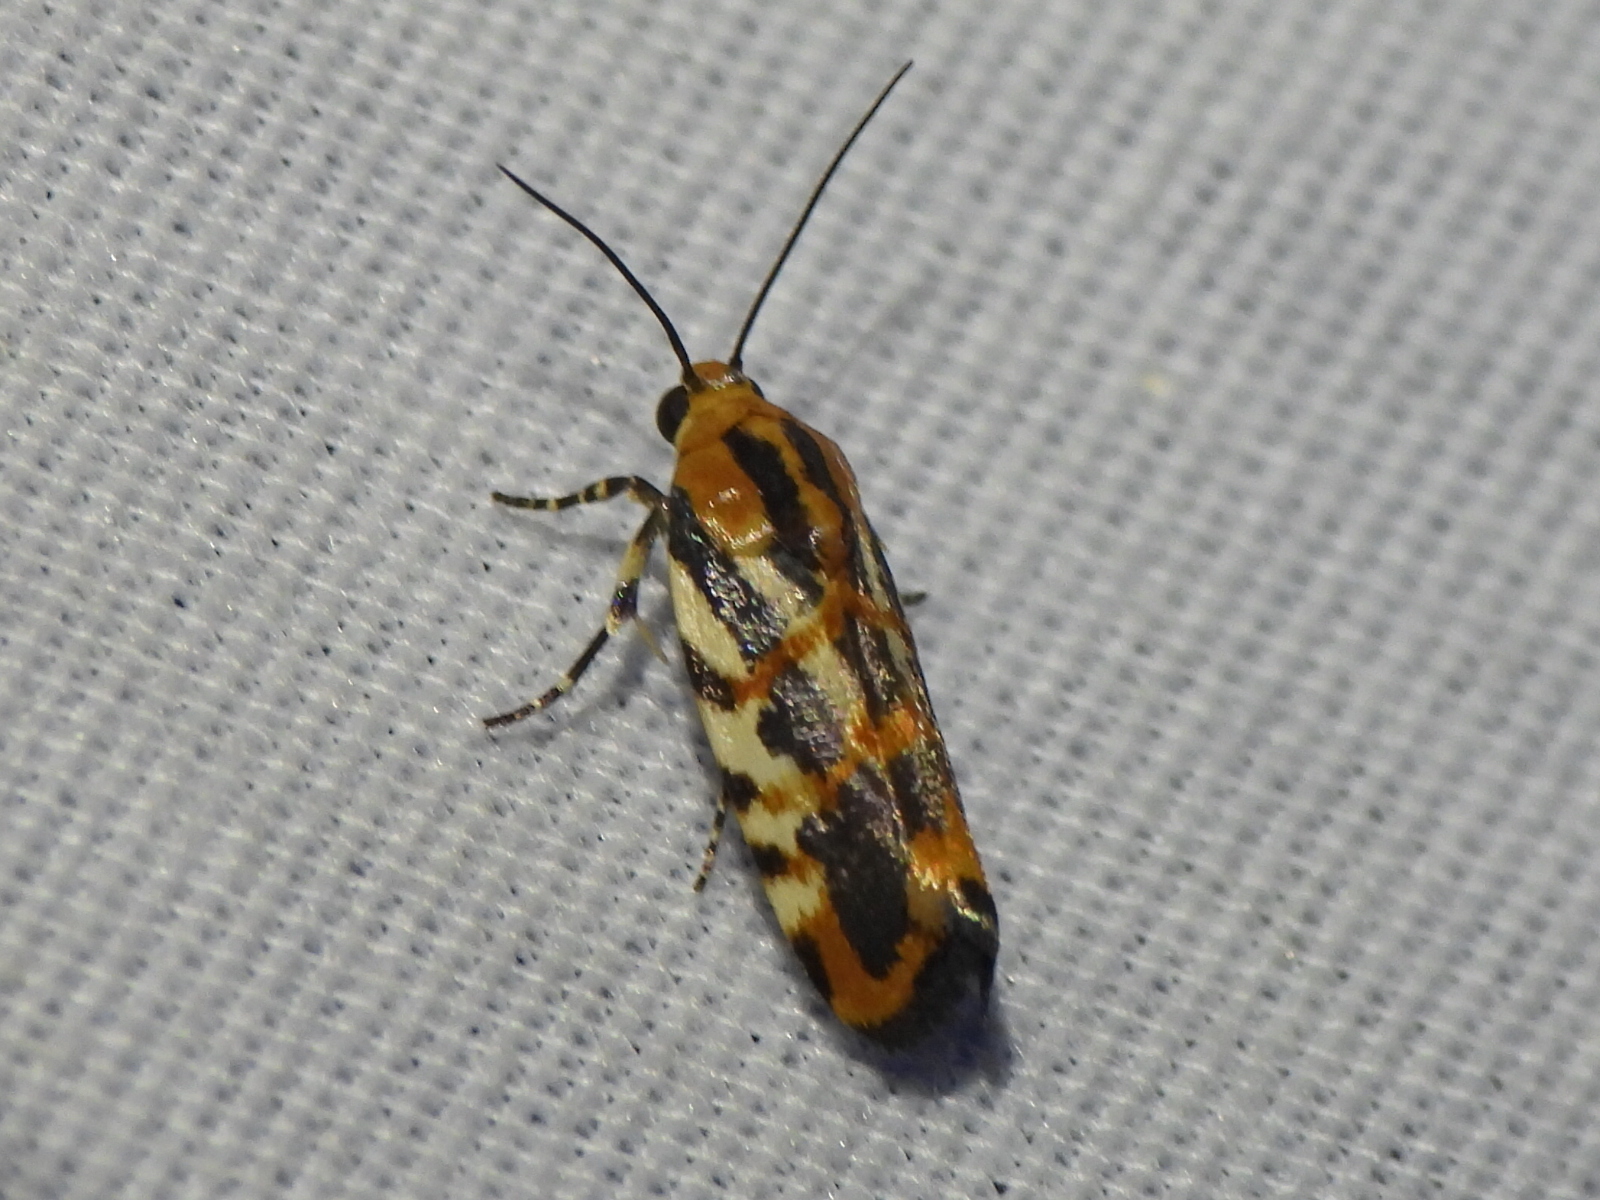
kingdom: Animalia
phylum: Arthropoda
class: Insecta
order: Lepidoptera
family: Noctuidae
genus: Acontia
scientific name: Acontia leo
